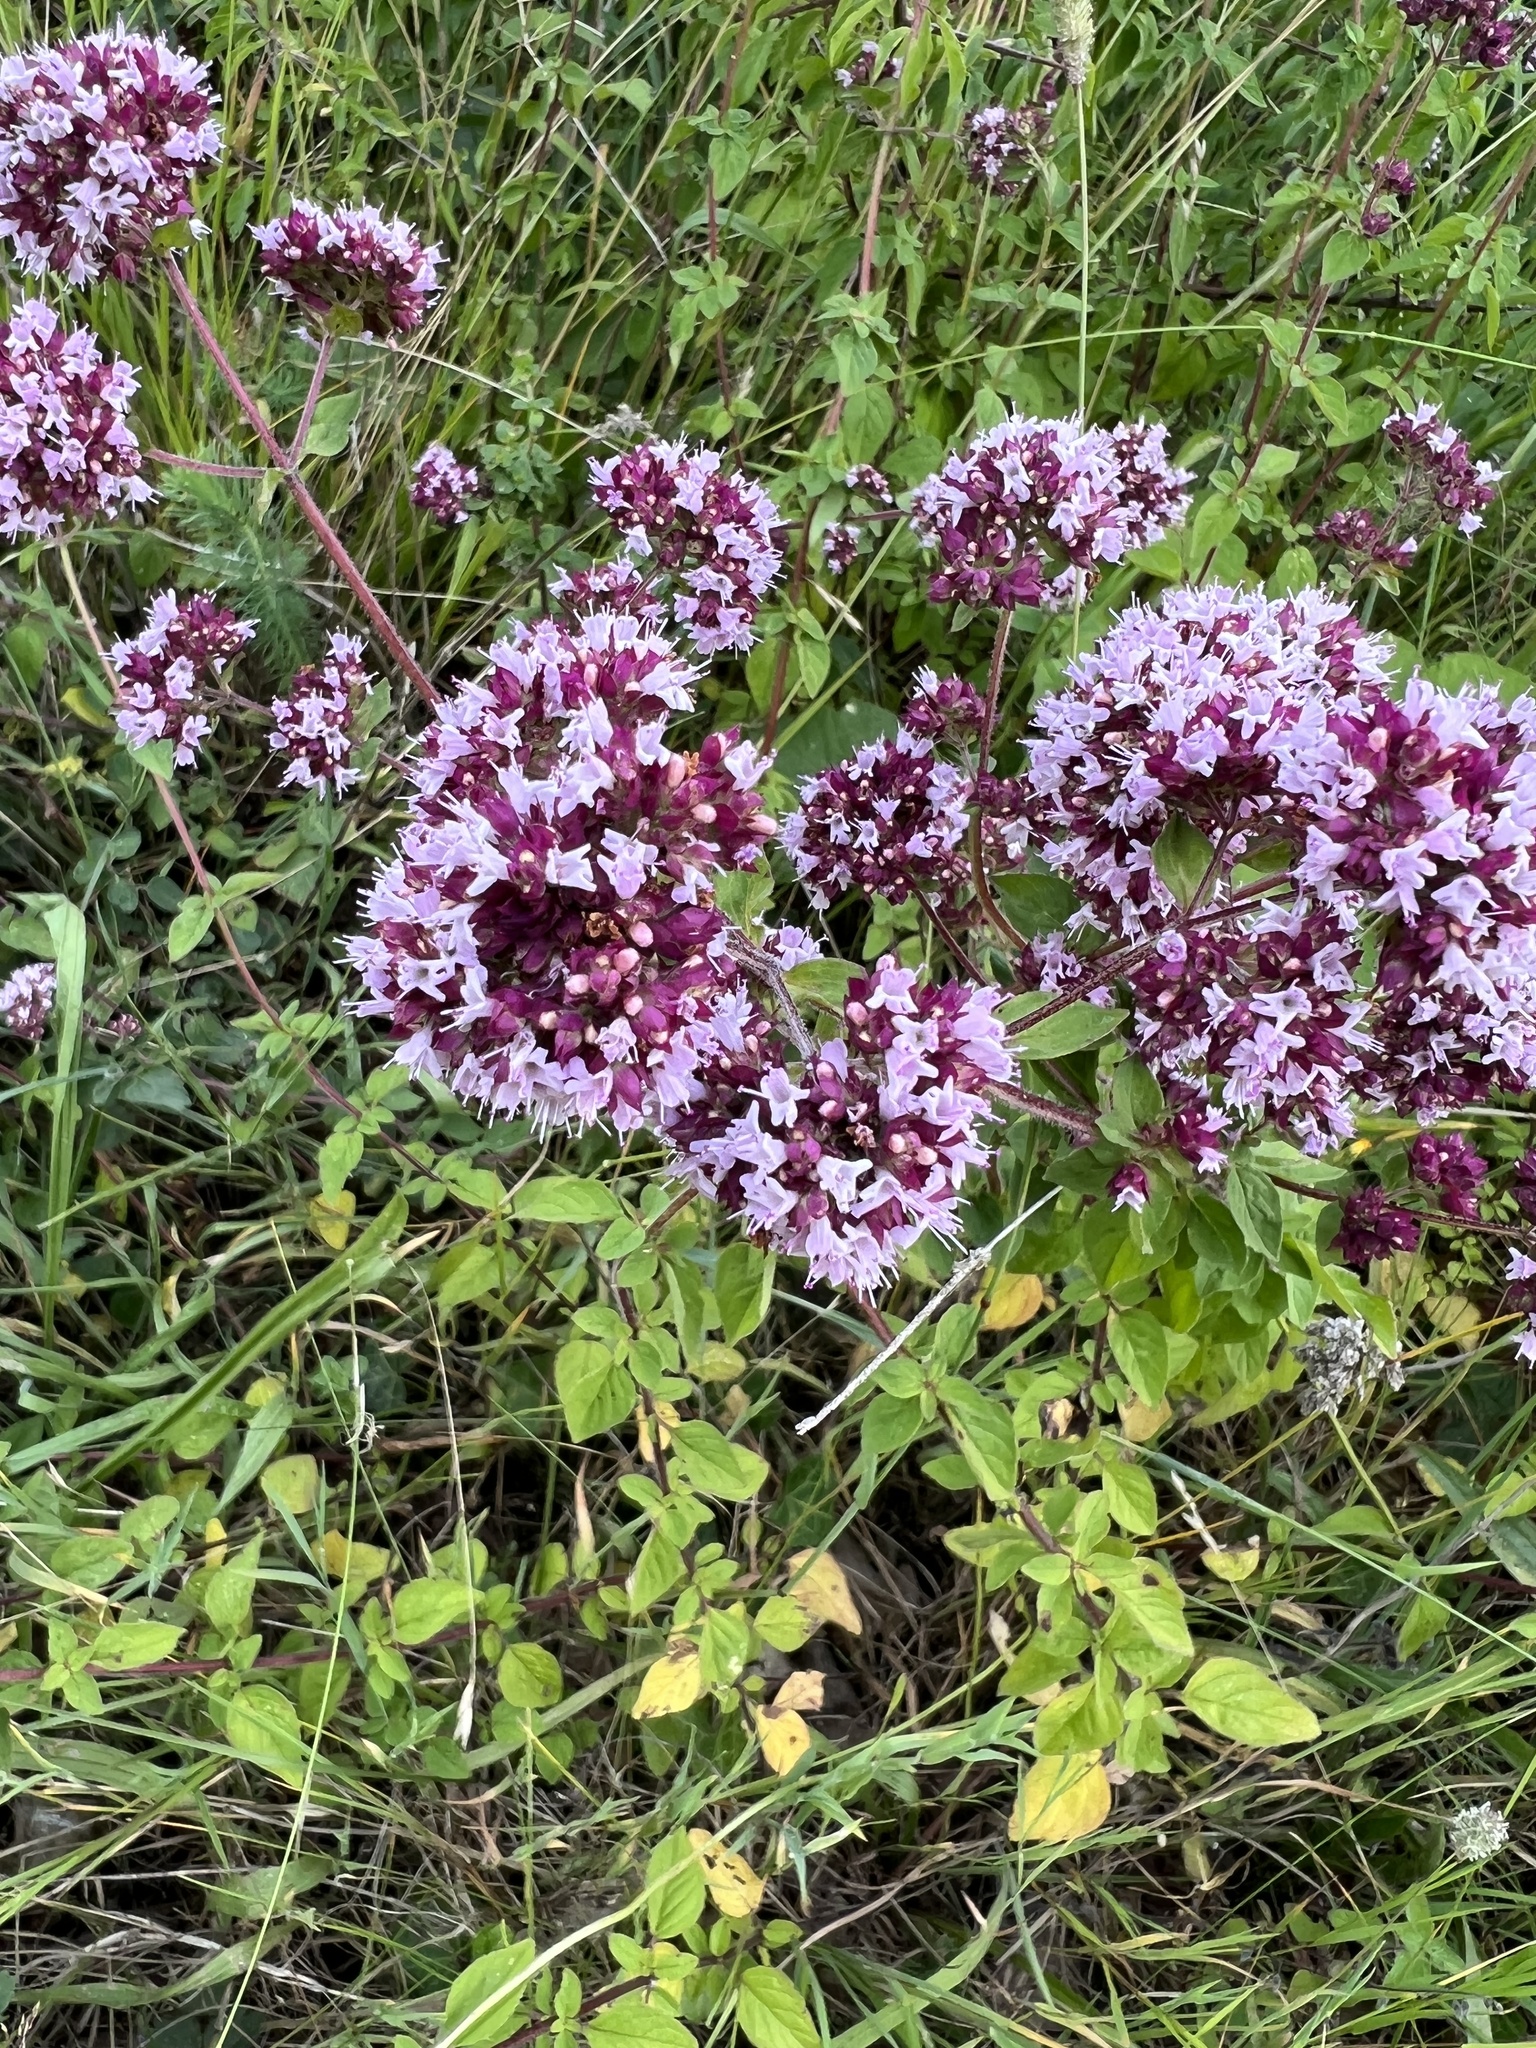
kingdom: Plantae
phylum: Tracheophyta
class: Magnoliopsida
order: Lamiales
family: Lamiaceae
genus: Origanum
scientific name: Origanum vulgare
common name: Wild marjoram
